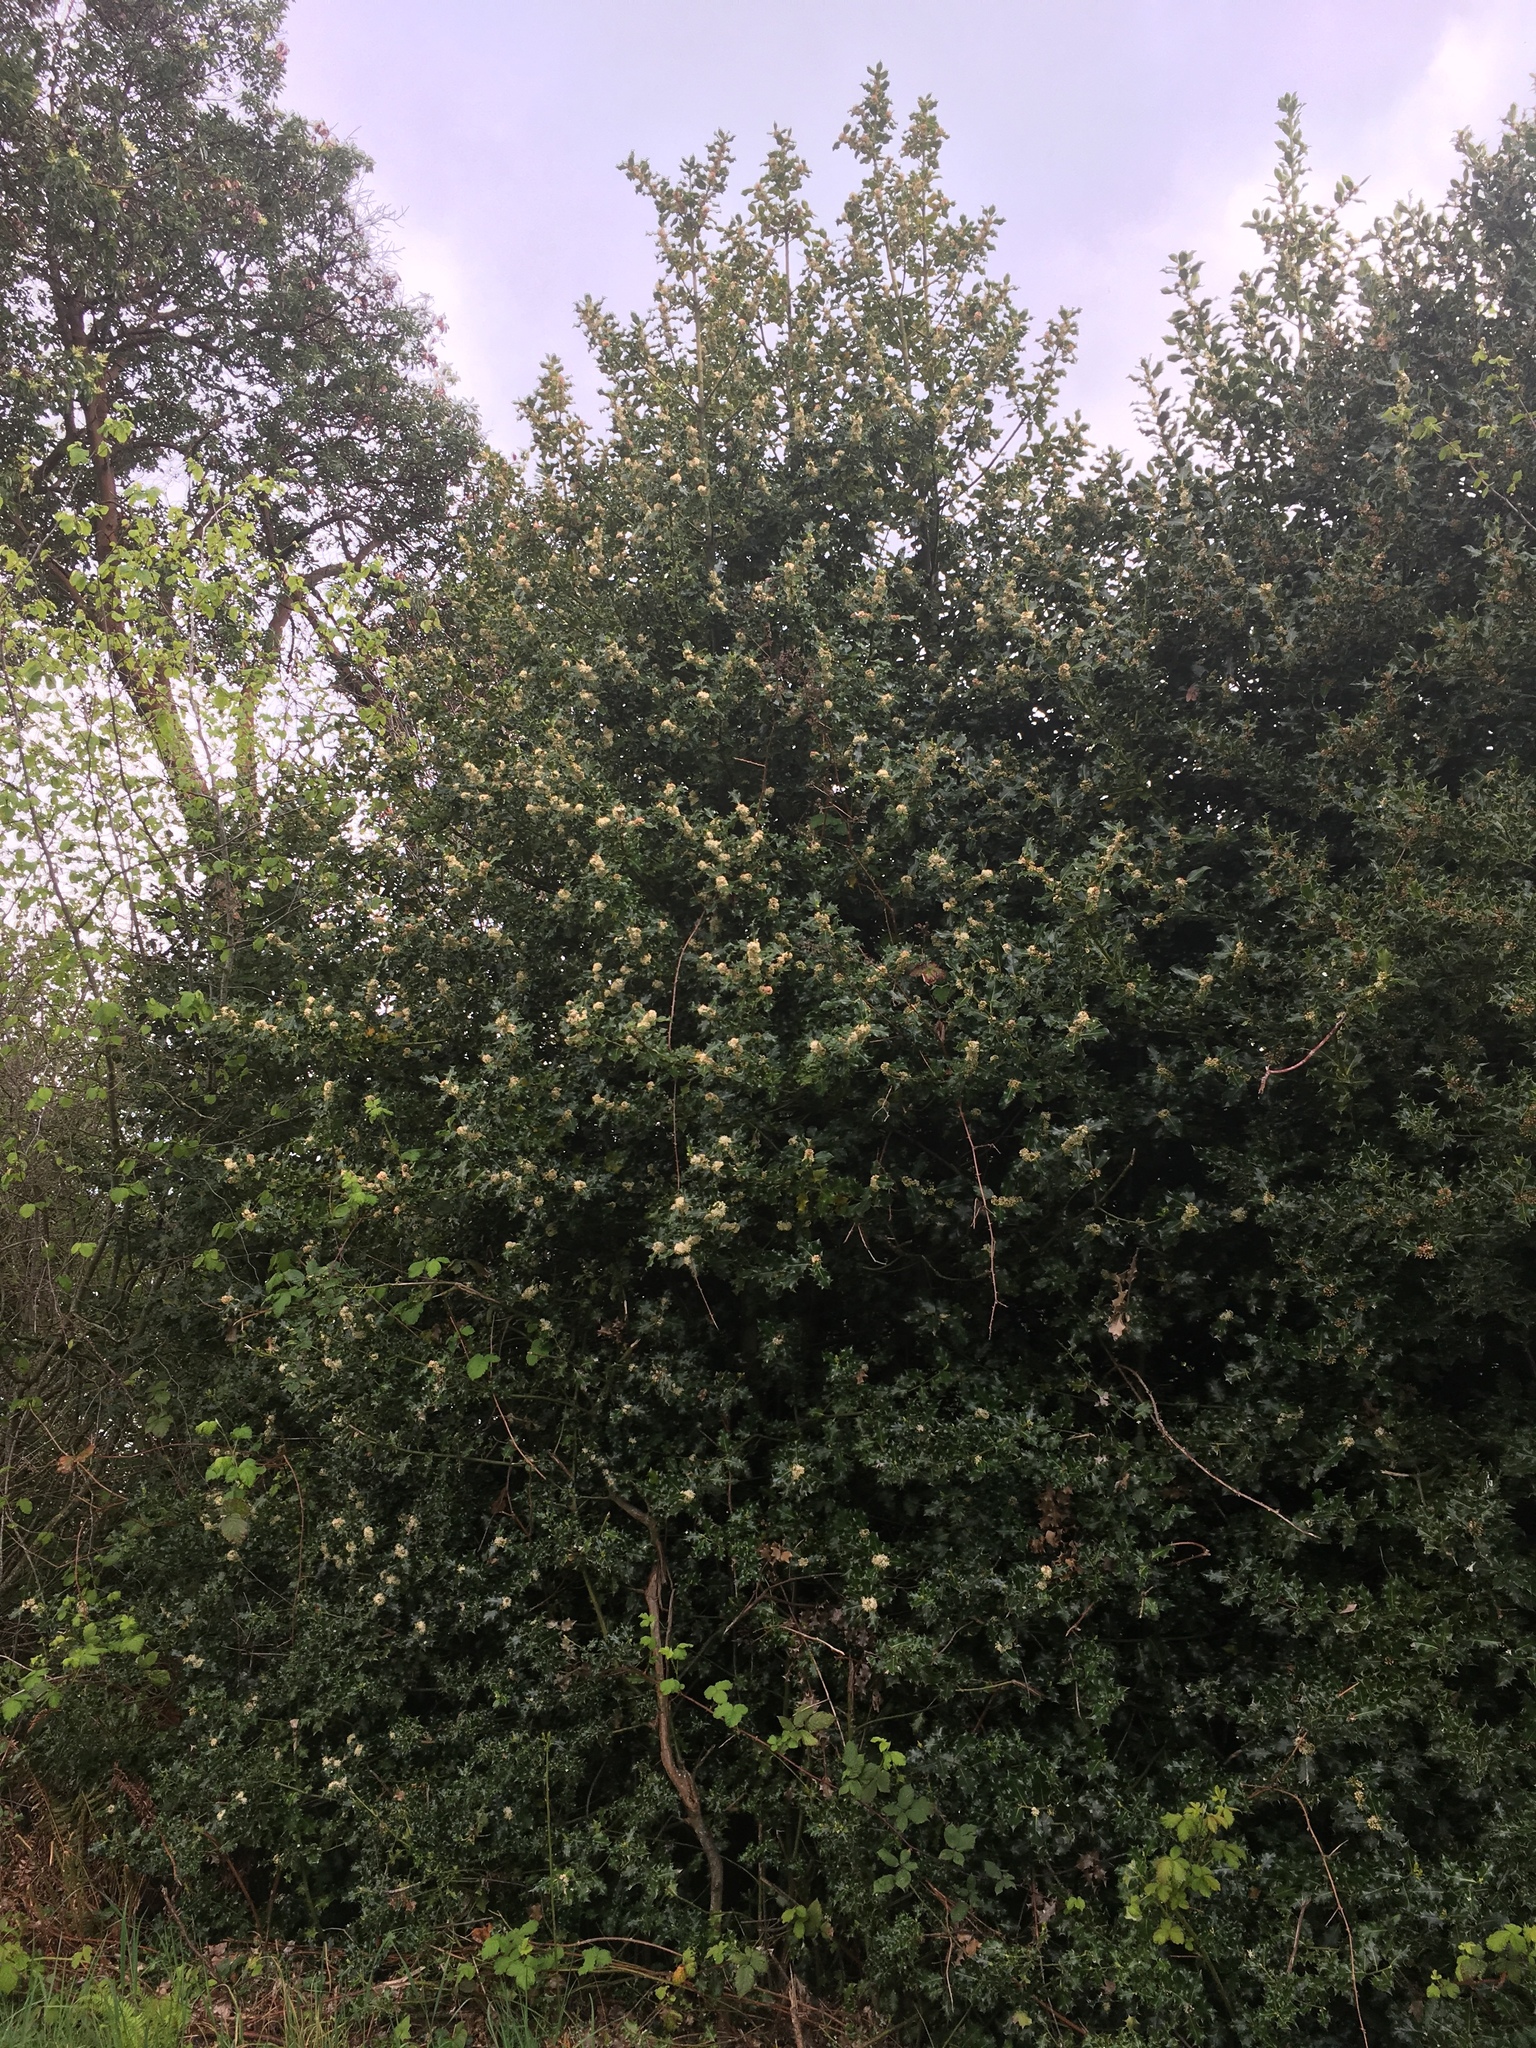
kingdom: Plantae
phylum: Tracheophyta
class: Magnoliopsida
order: Aquifoliales
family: Aquifoliaceae
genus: Ilex
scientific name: Ilex aquifolium
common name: English holly
